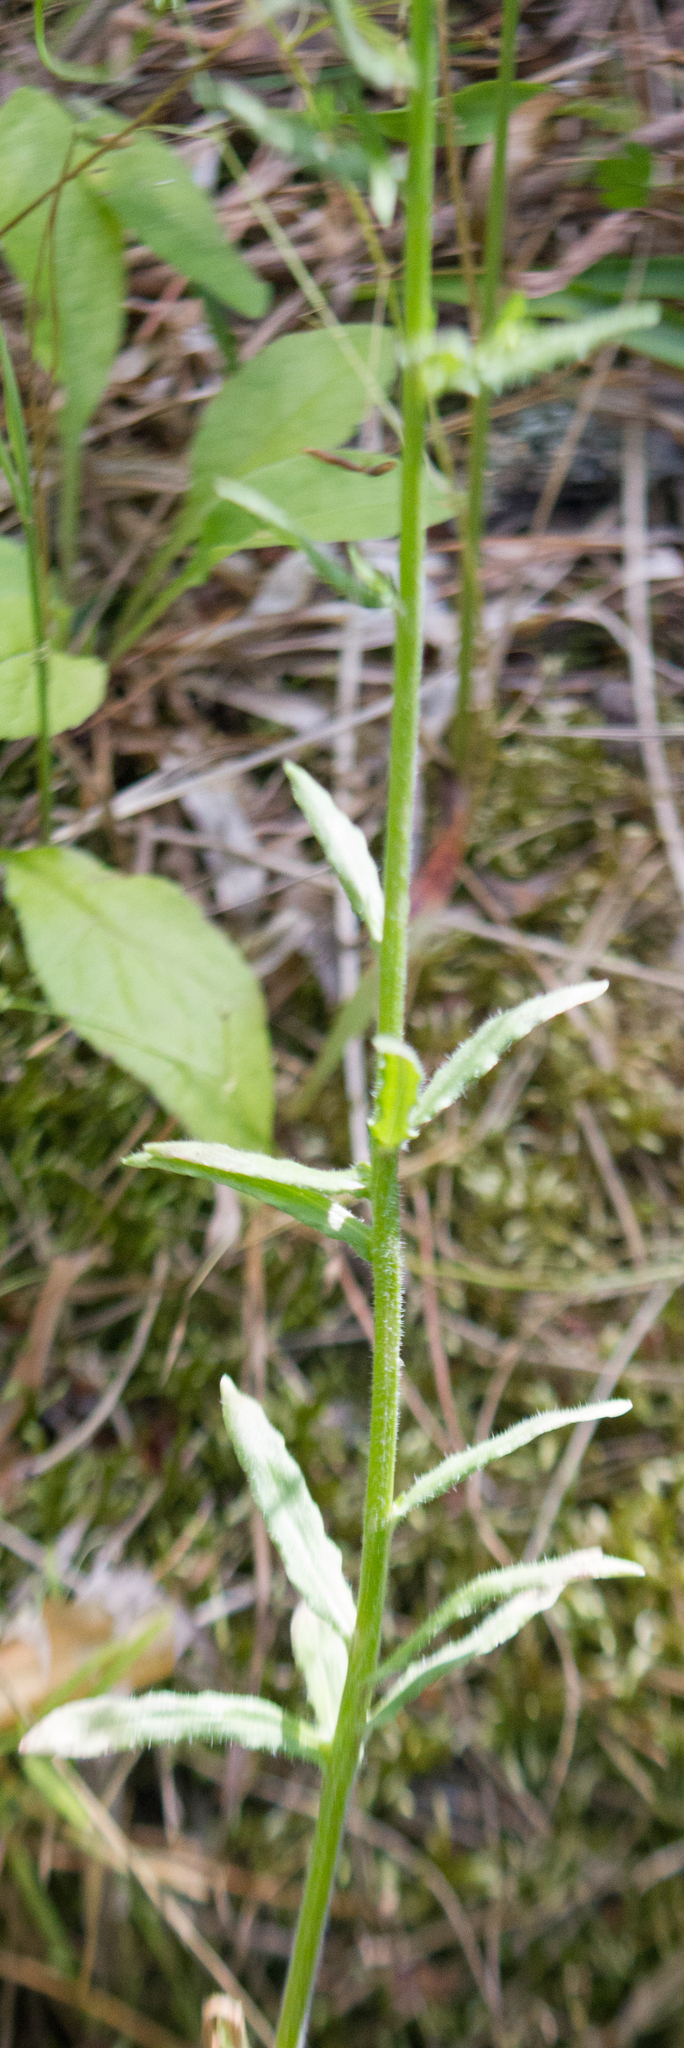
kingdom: Plantae
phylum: Tracheophyta
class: Magnoliopsida
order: Asterales
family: Campanulaceae
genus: Jasione
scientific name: Jasione montana
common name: Sheep's-bit
